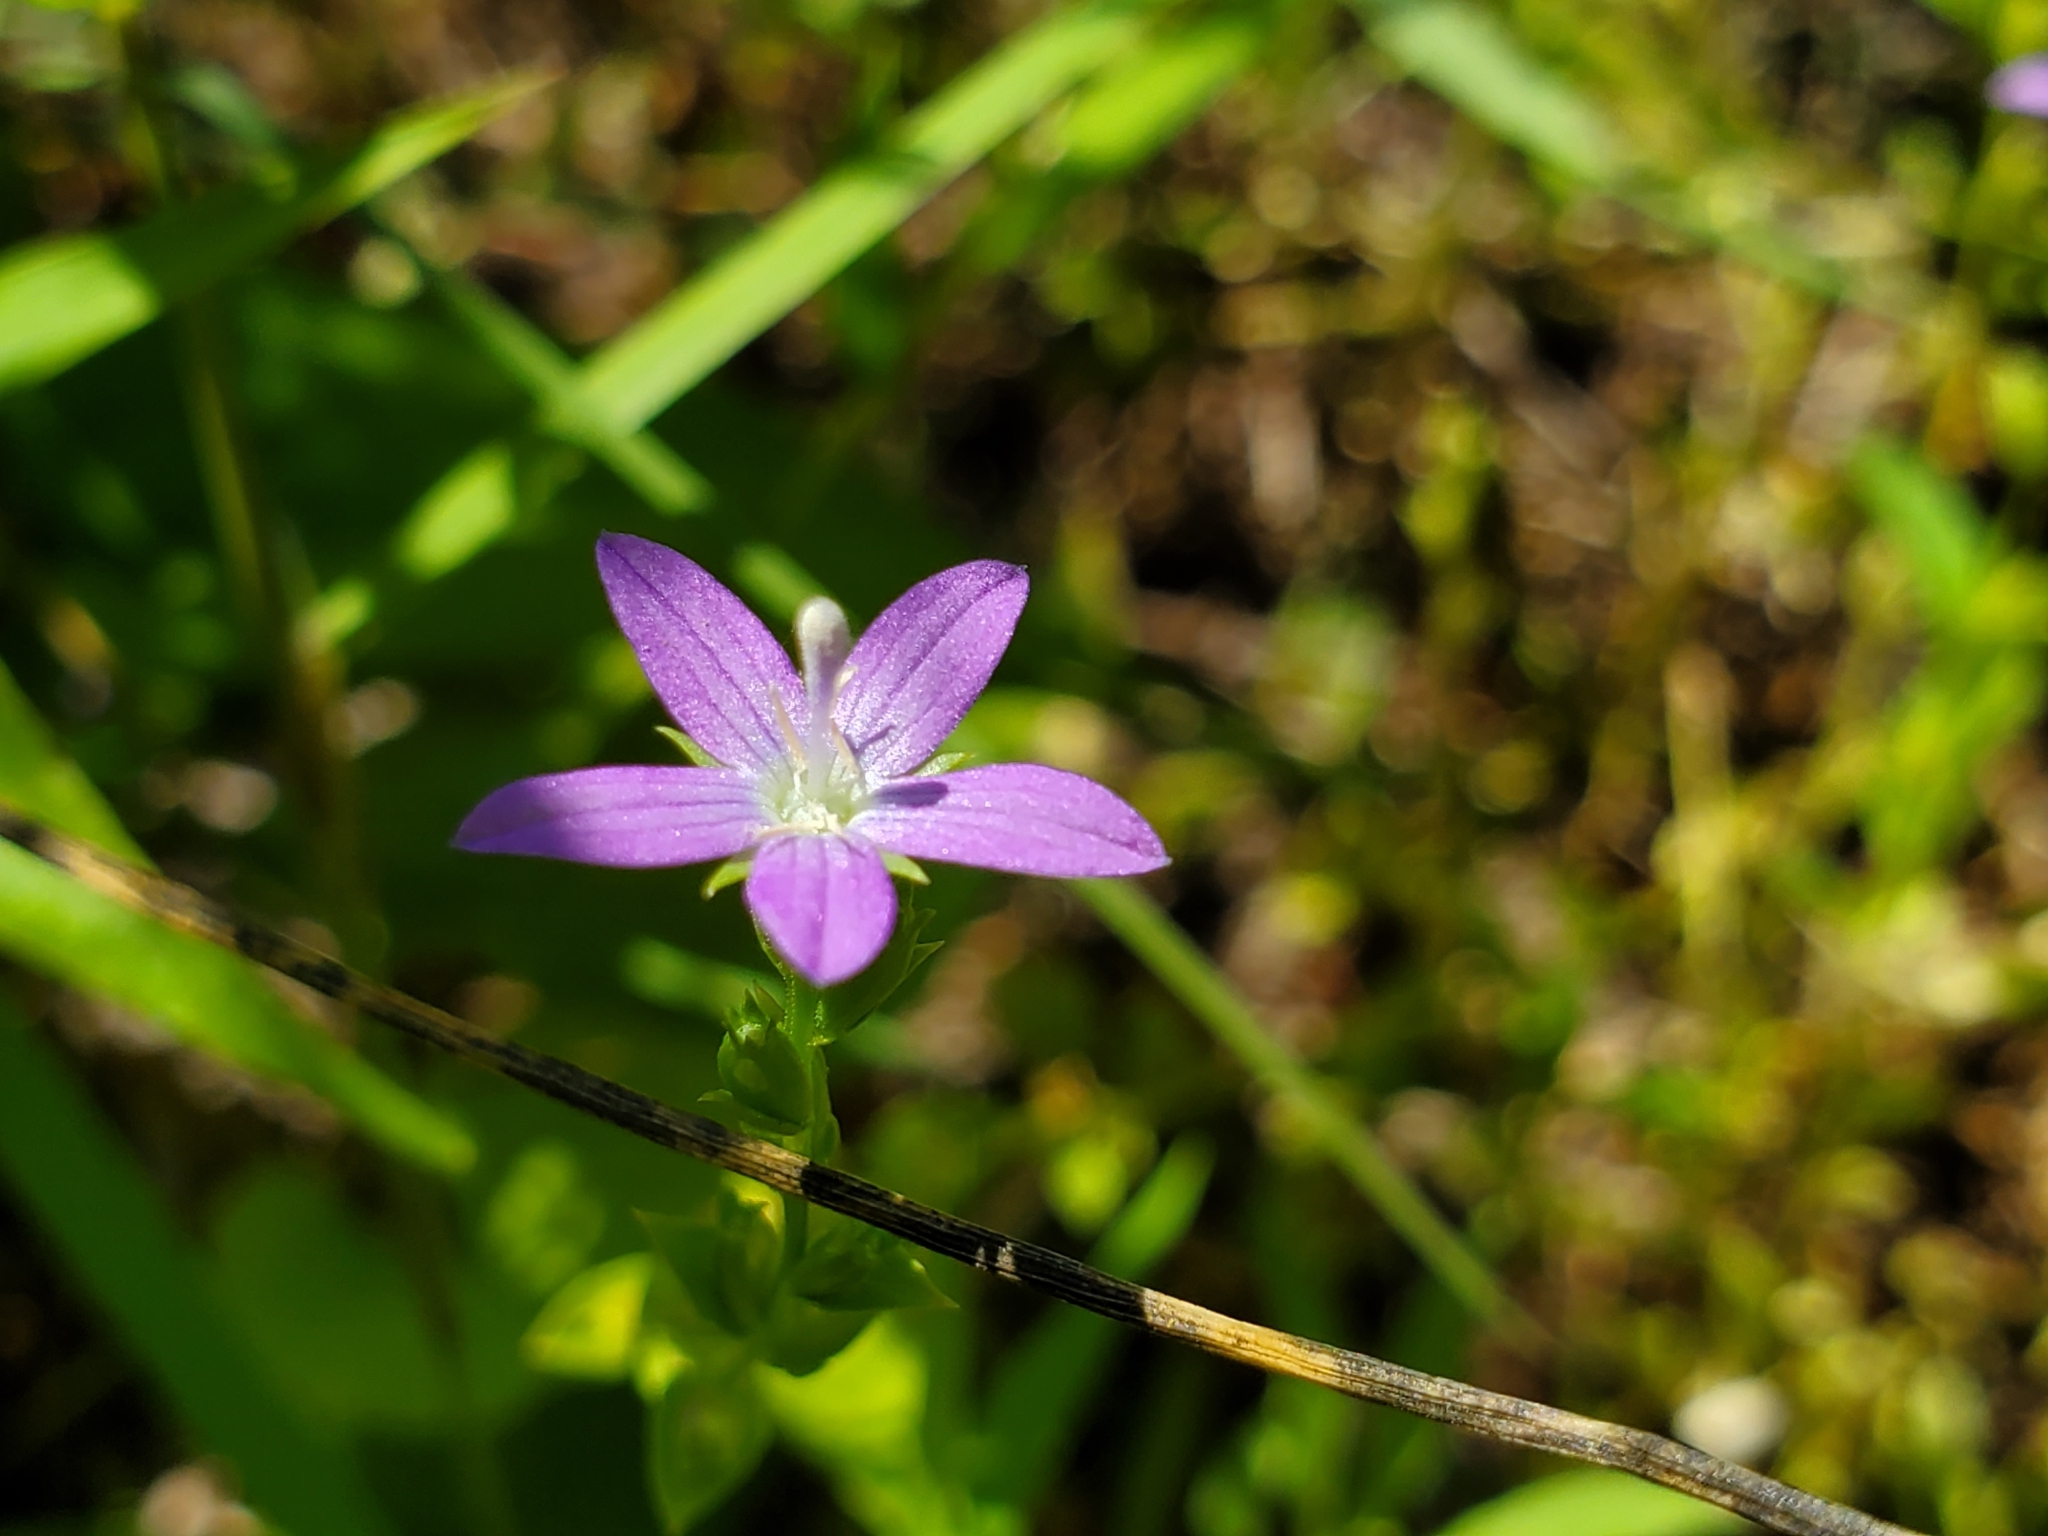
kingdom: Plantae
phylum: Tracheophyta
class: Magnoliopsida
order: Asterales
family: Campanulaceae
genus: Triodanis
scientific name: Triodanis biflora
